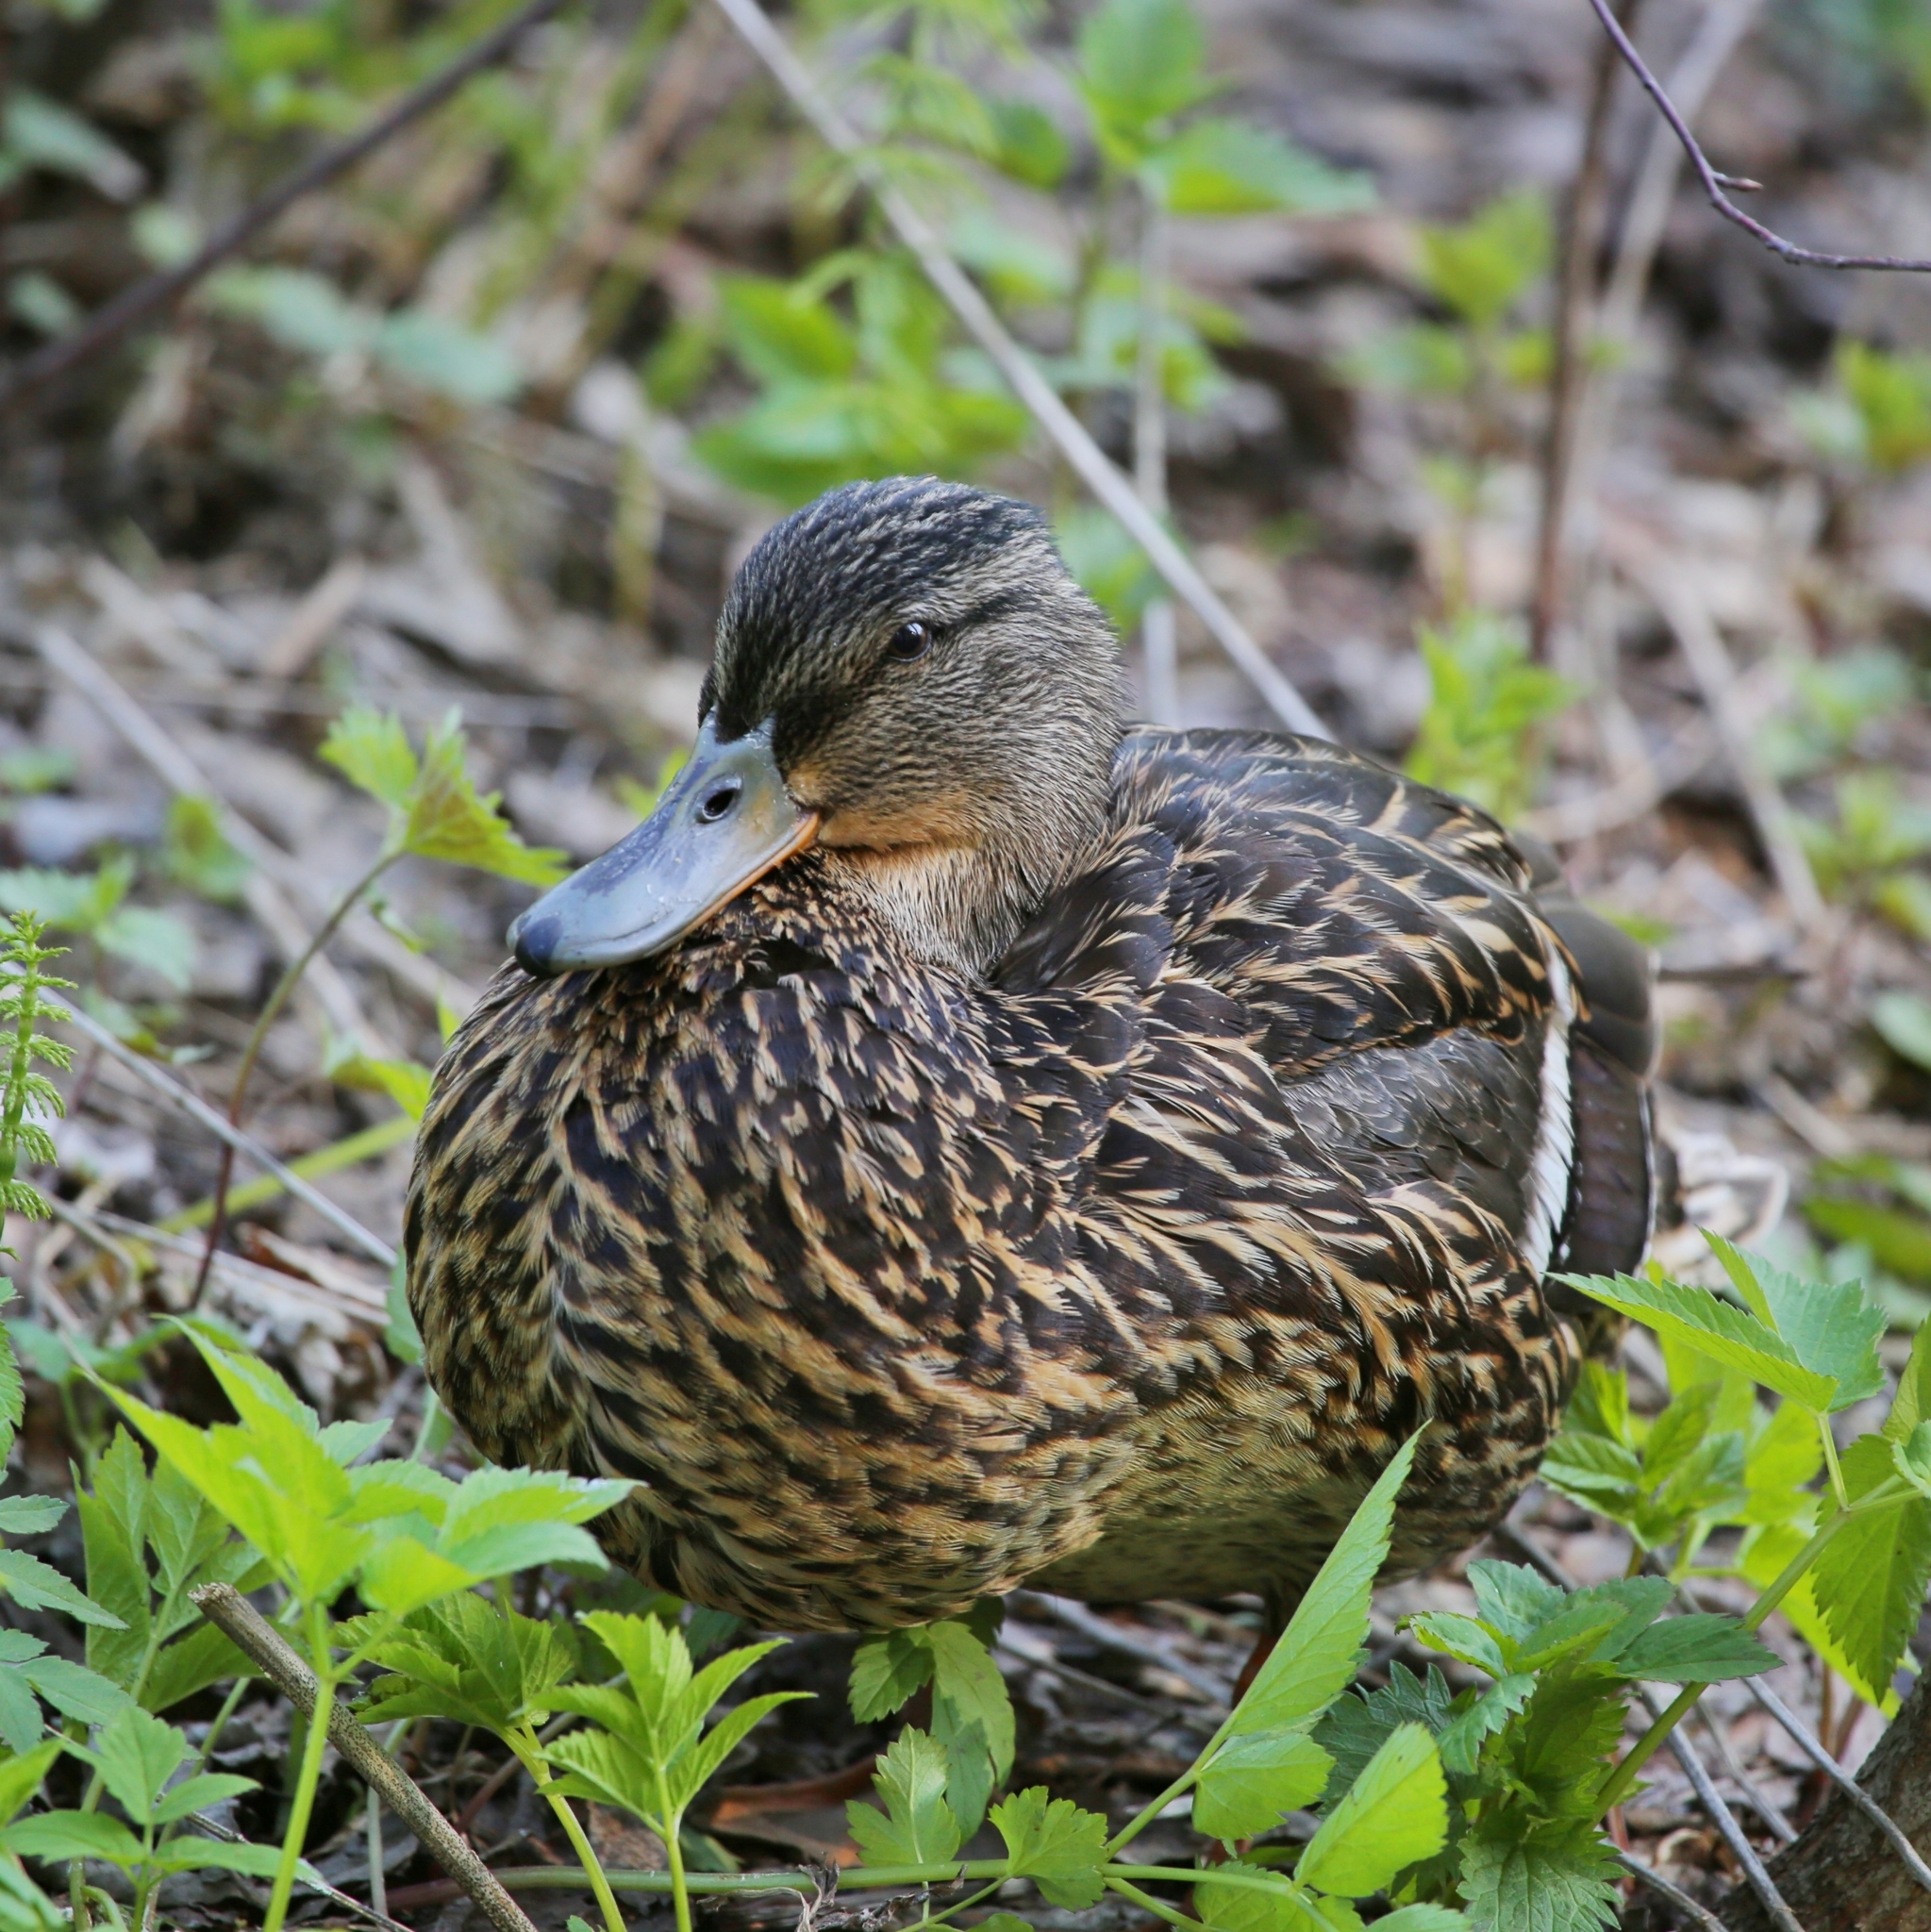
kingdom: Animalia
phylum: Chordata
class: Aves
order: Anseriformes
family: Anatidae
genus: Anas
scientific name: Anas platyrhynchos
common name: Mallard
